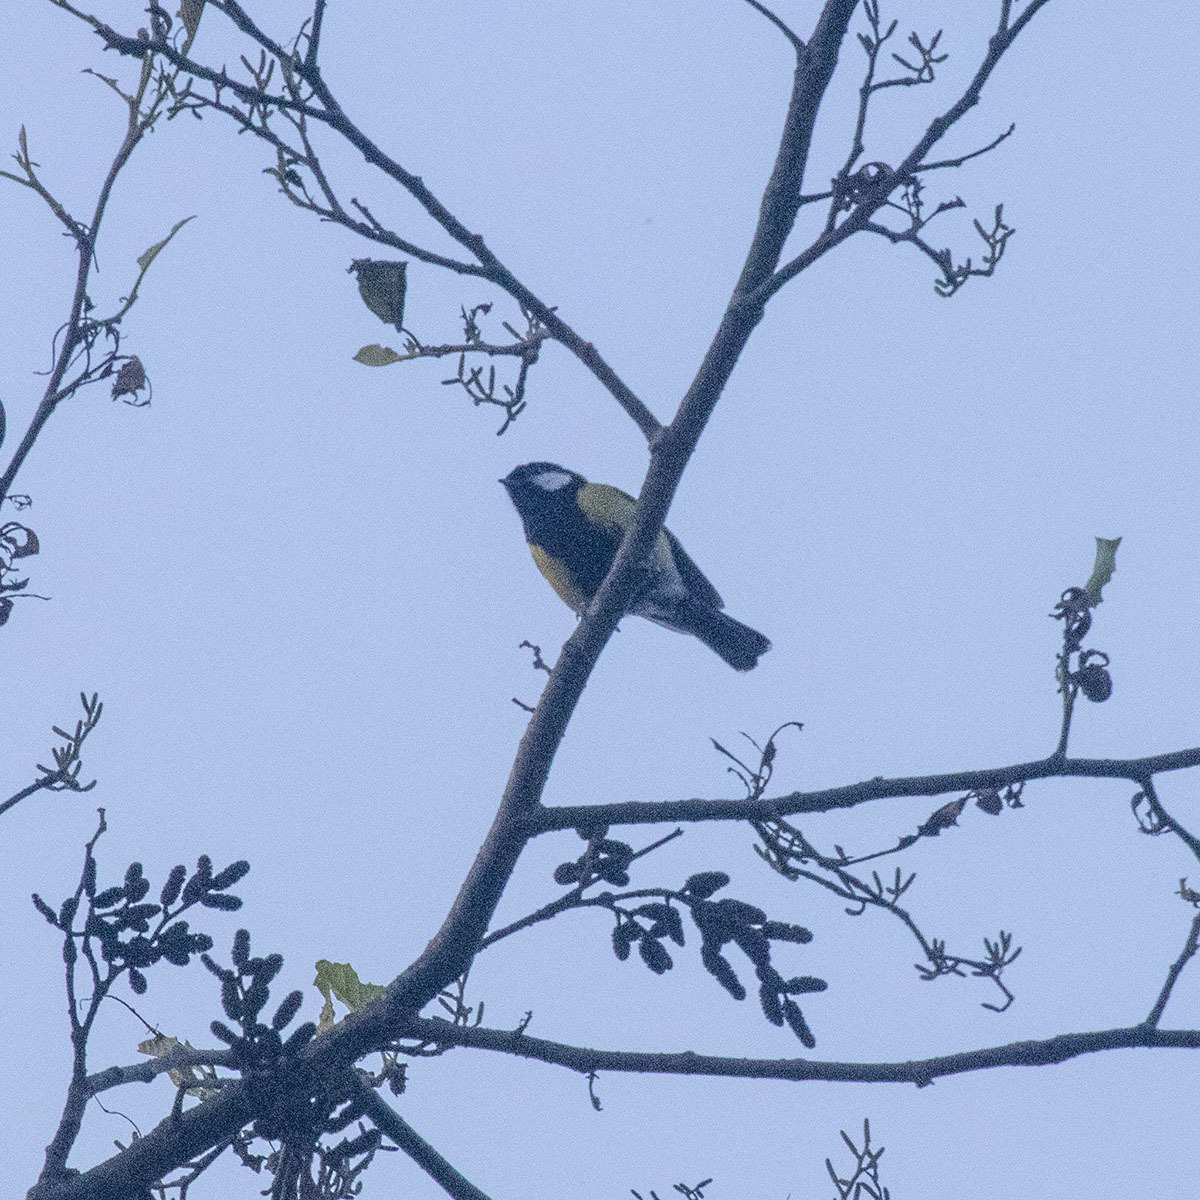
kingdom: Animalia
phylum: Chordata
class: Aves
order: Passeriformes
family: Paridae
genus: Parus
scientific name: Parus monticolus
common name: Green-backed tit
